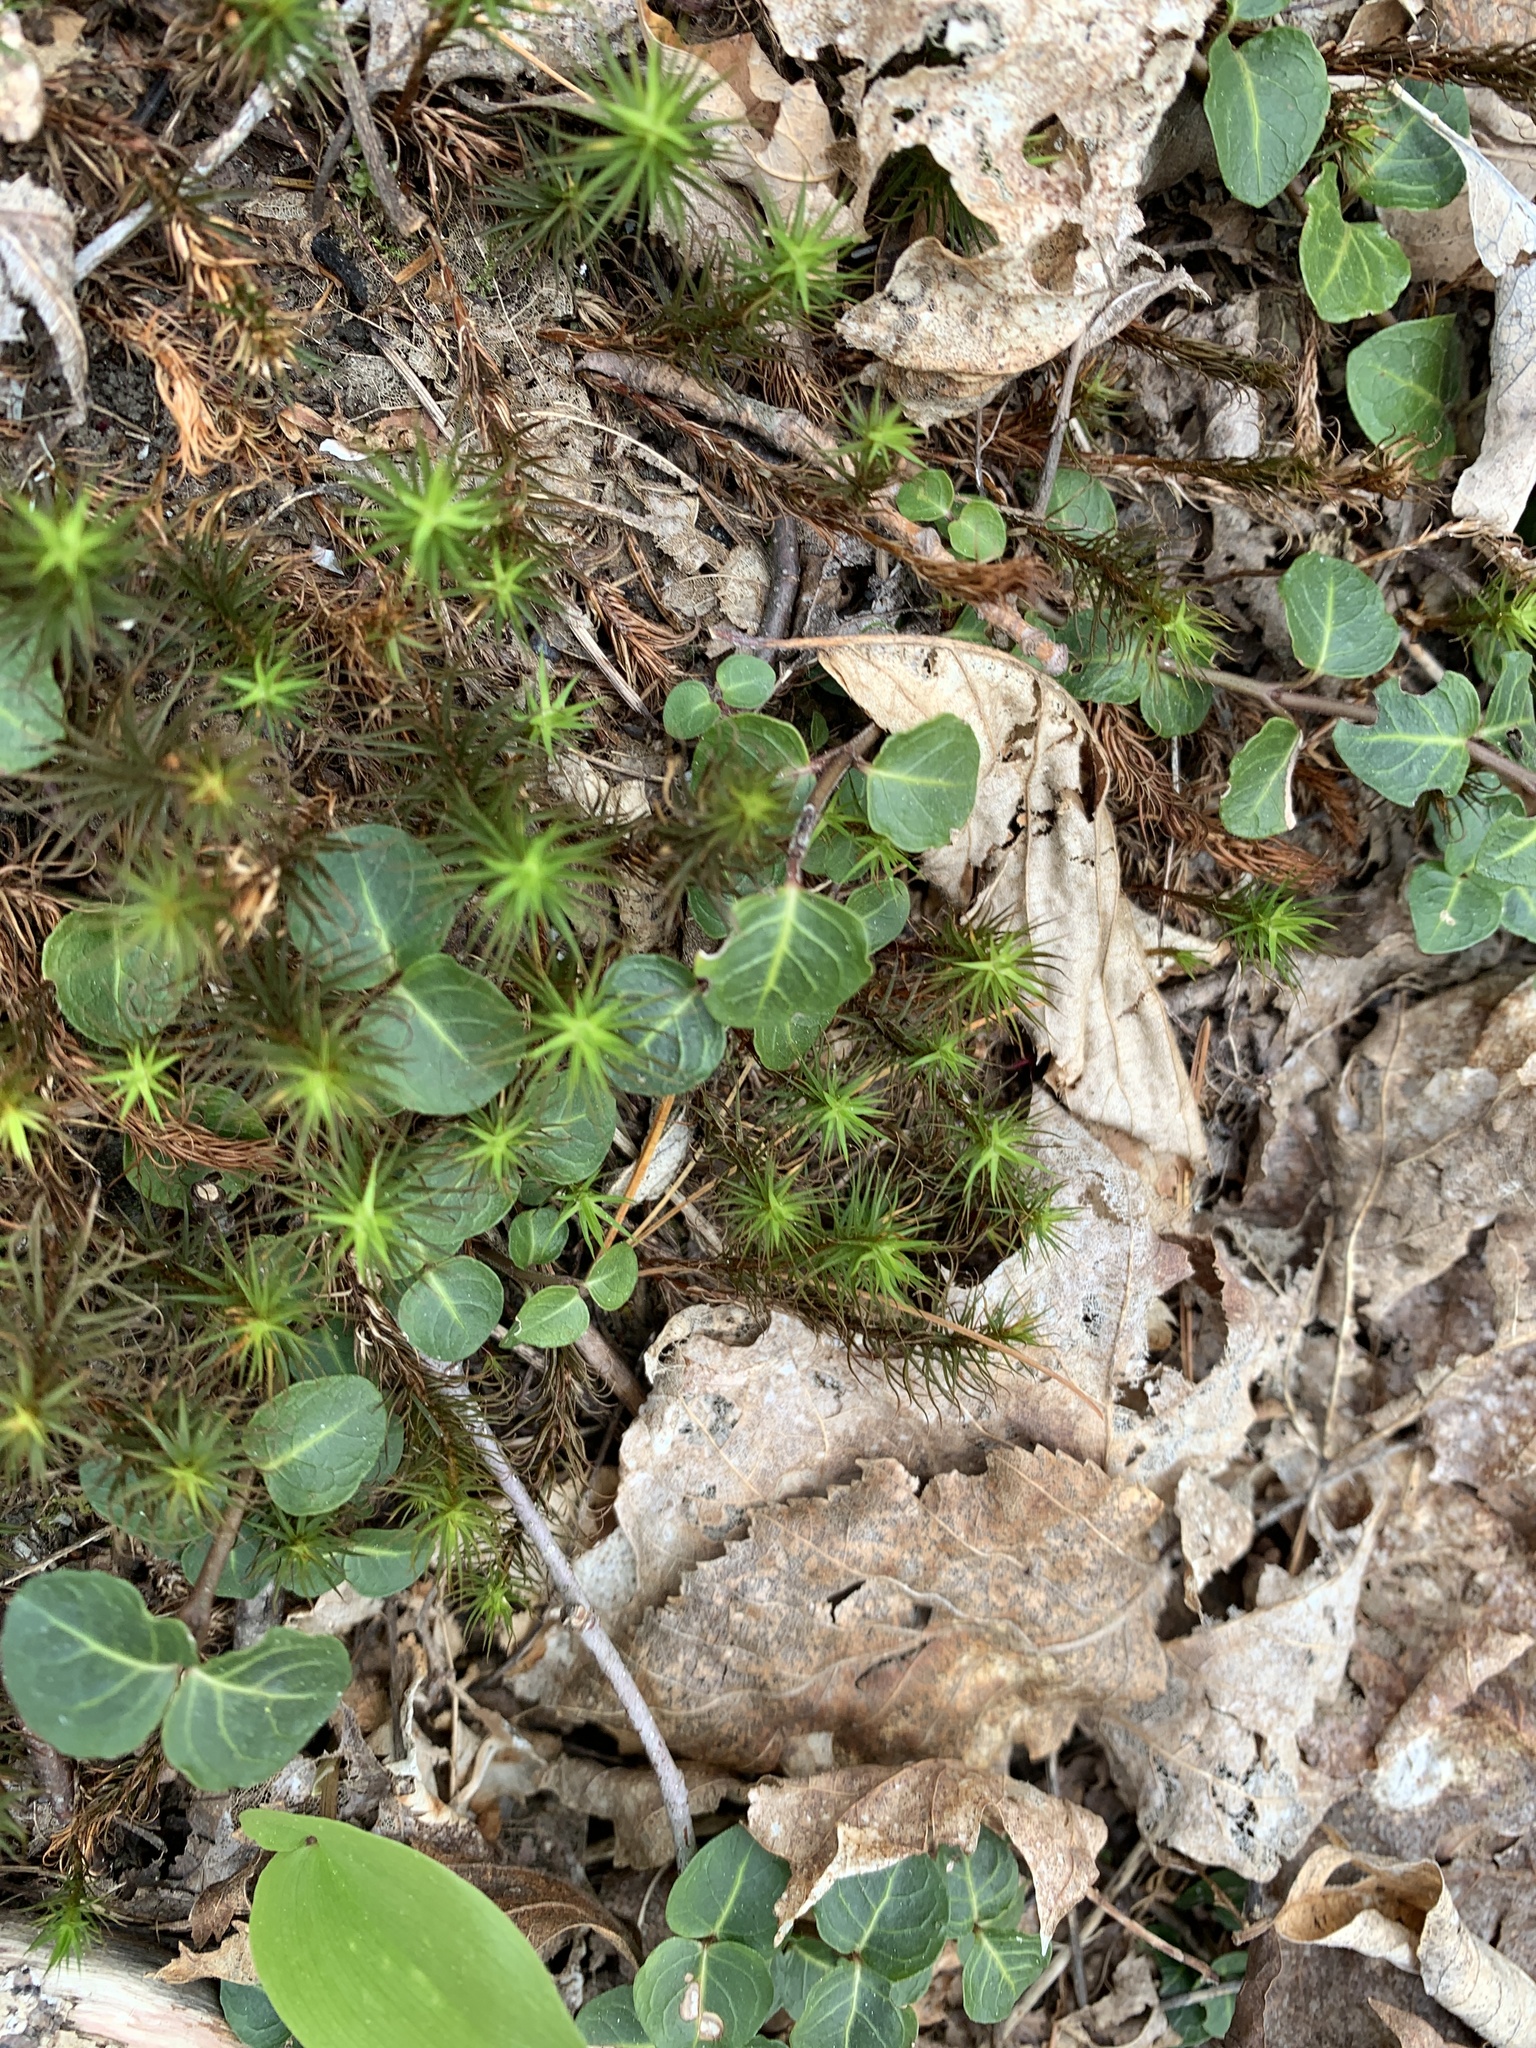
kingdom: Plantae
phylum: Tracheophyta
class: Magnoliopsida
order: Gentianales
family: Rubiaceae
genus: Mitchella
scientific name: Mitchella repens
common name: Partridge-berry
